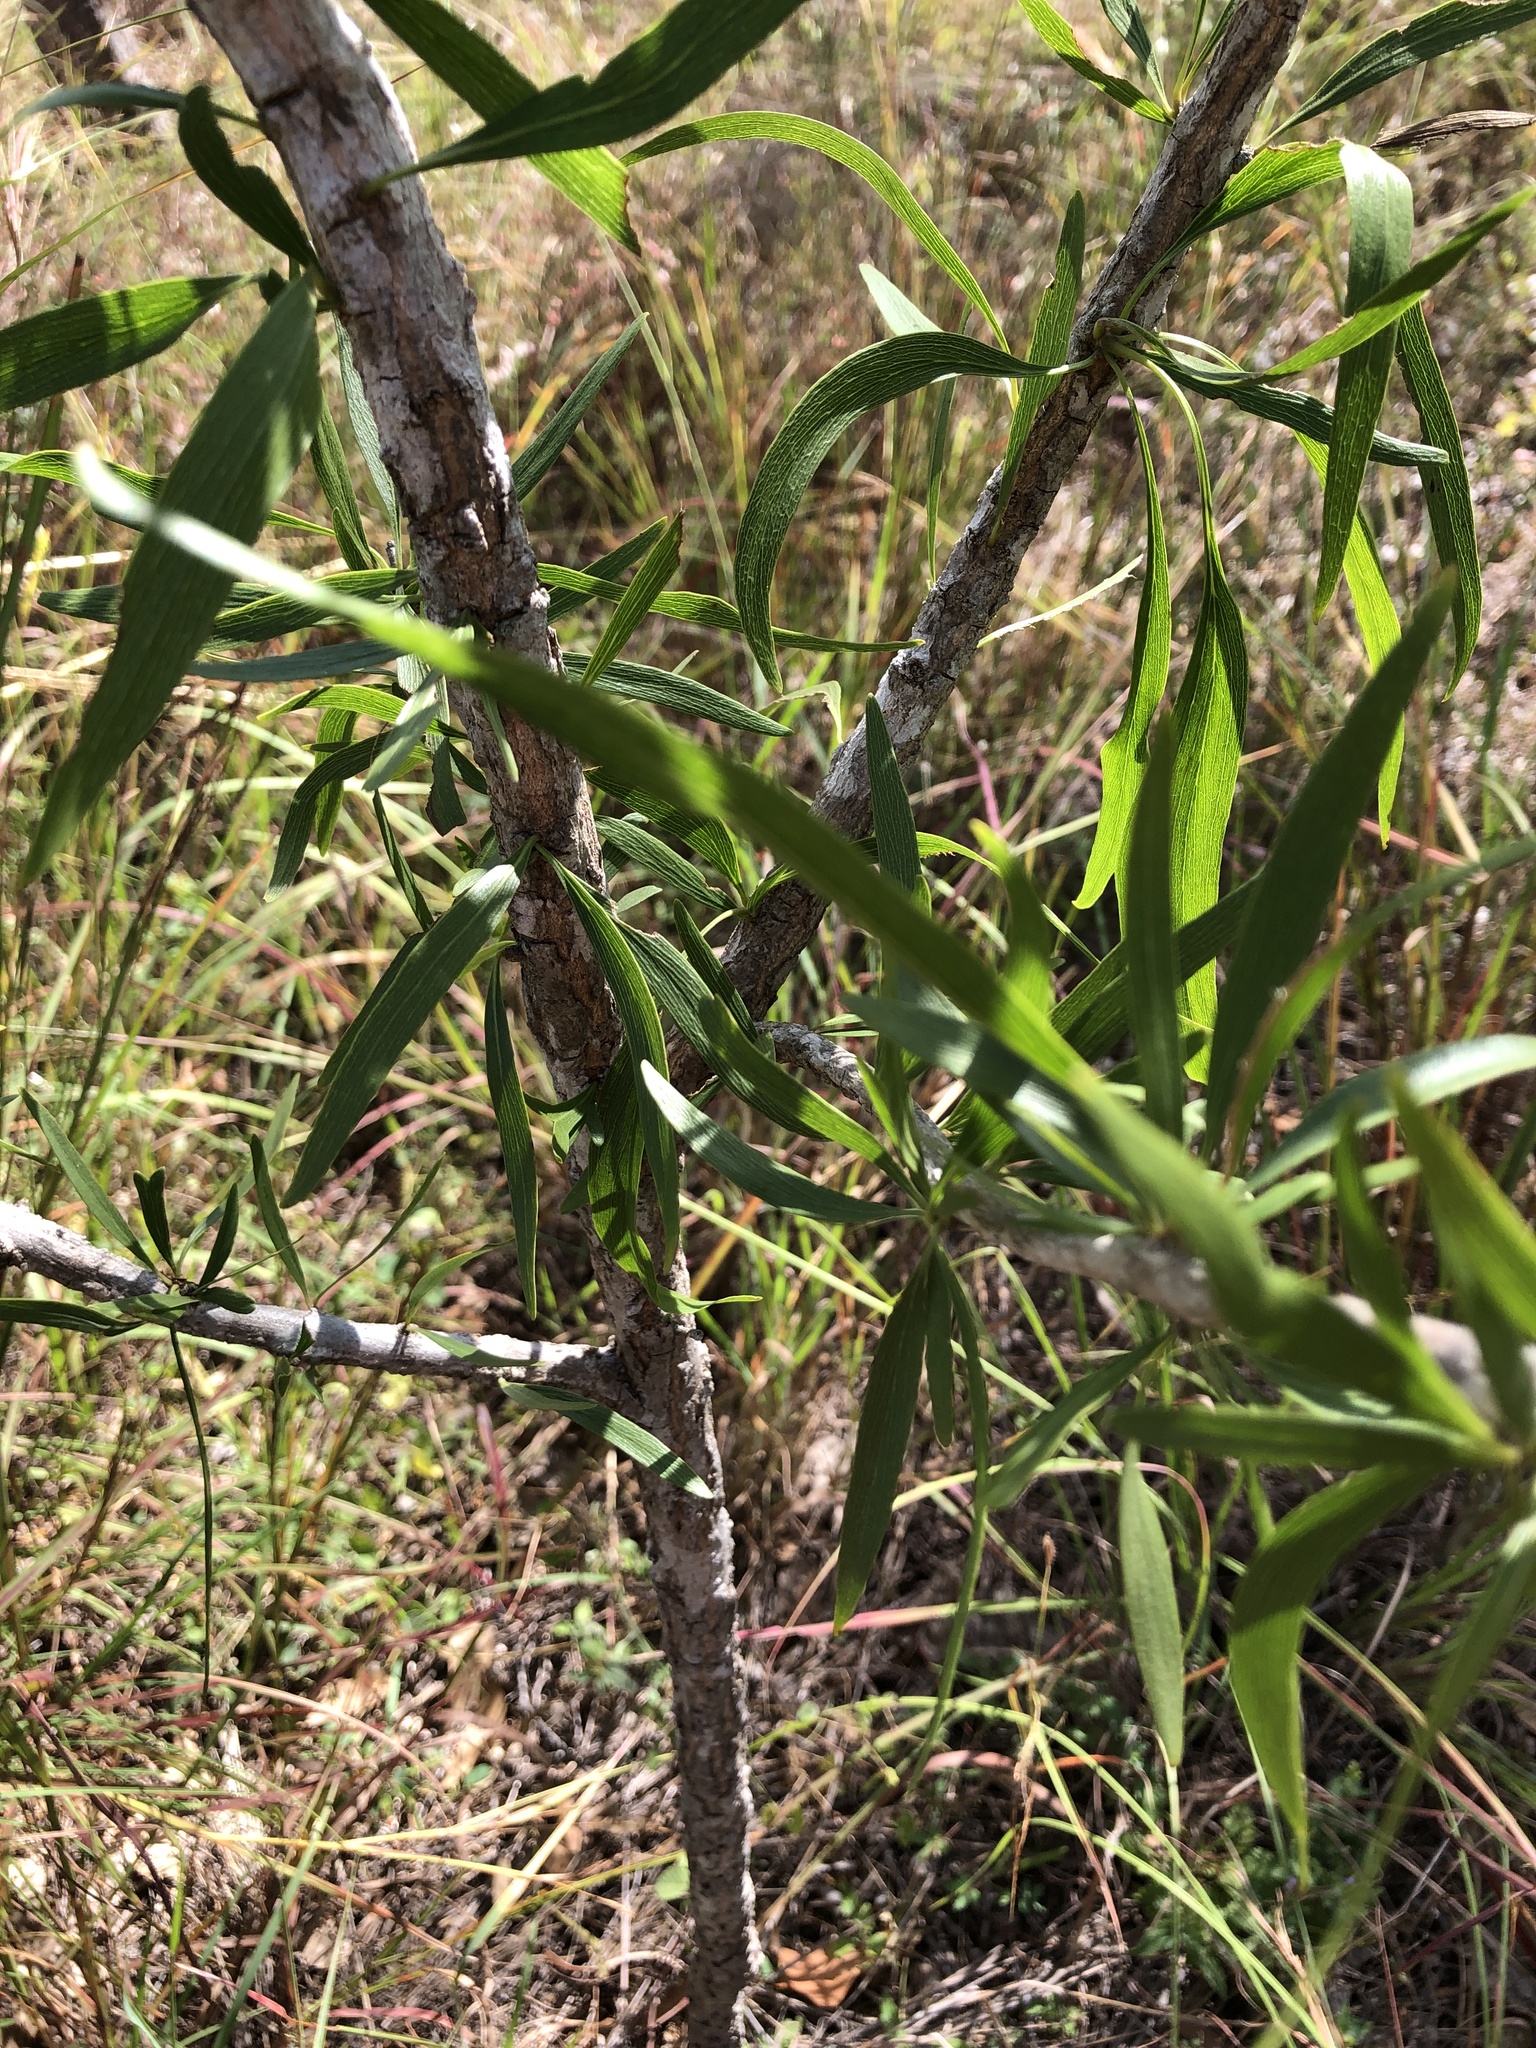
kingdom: Plantae
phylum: Tracheophyta
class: Magnoliopsida
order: Lamiales
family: Bignoniaceae
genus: Dolichandrone
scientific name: Dolichandrone alternifolia
